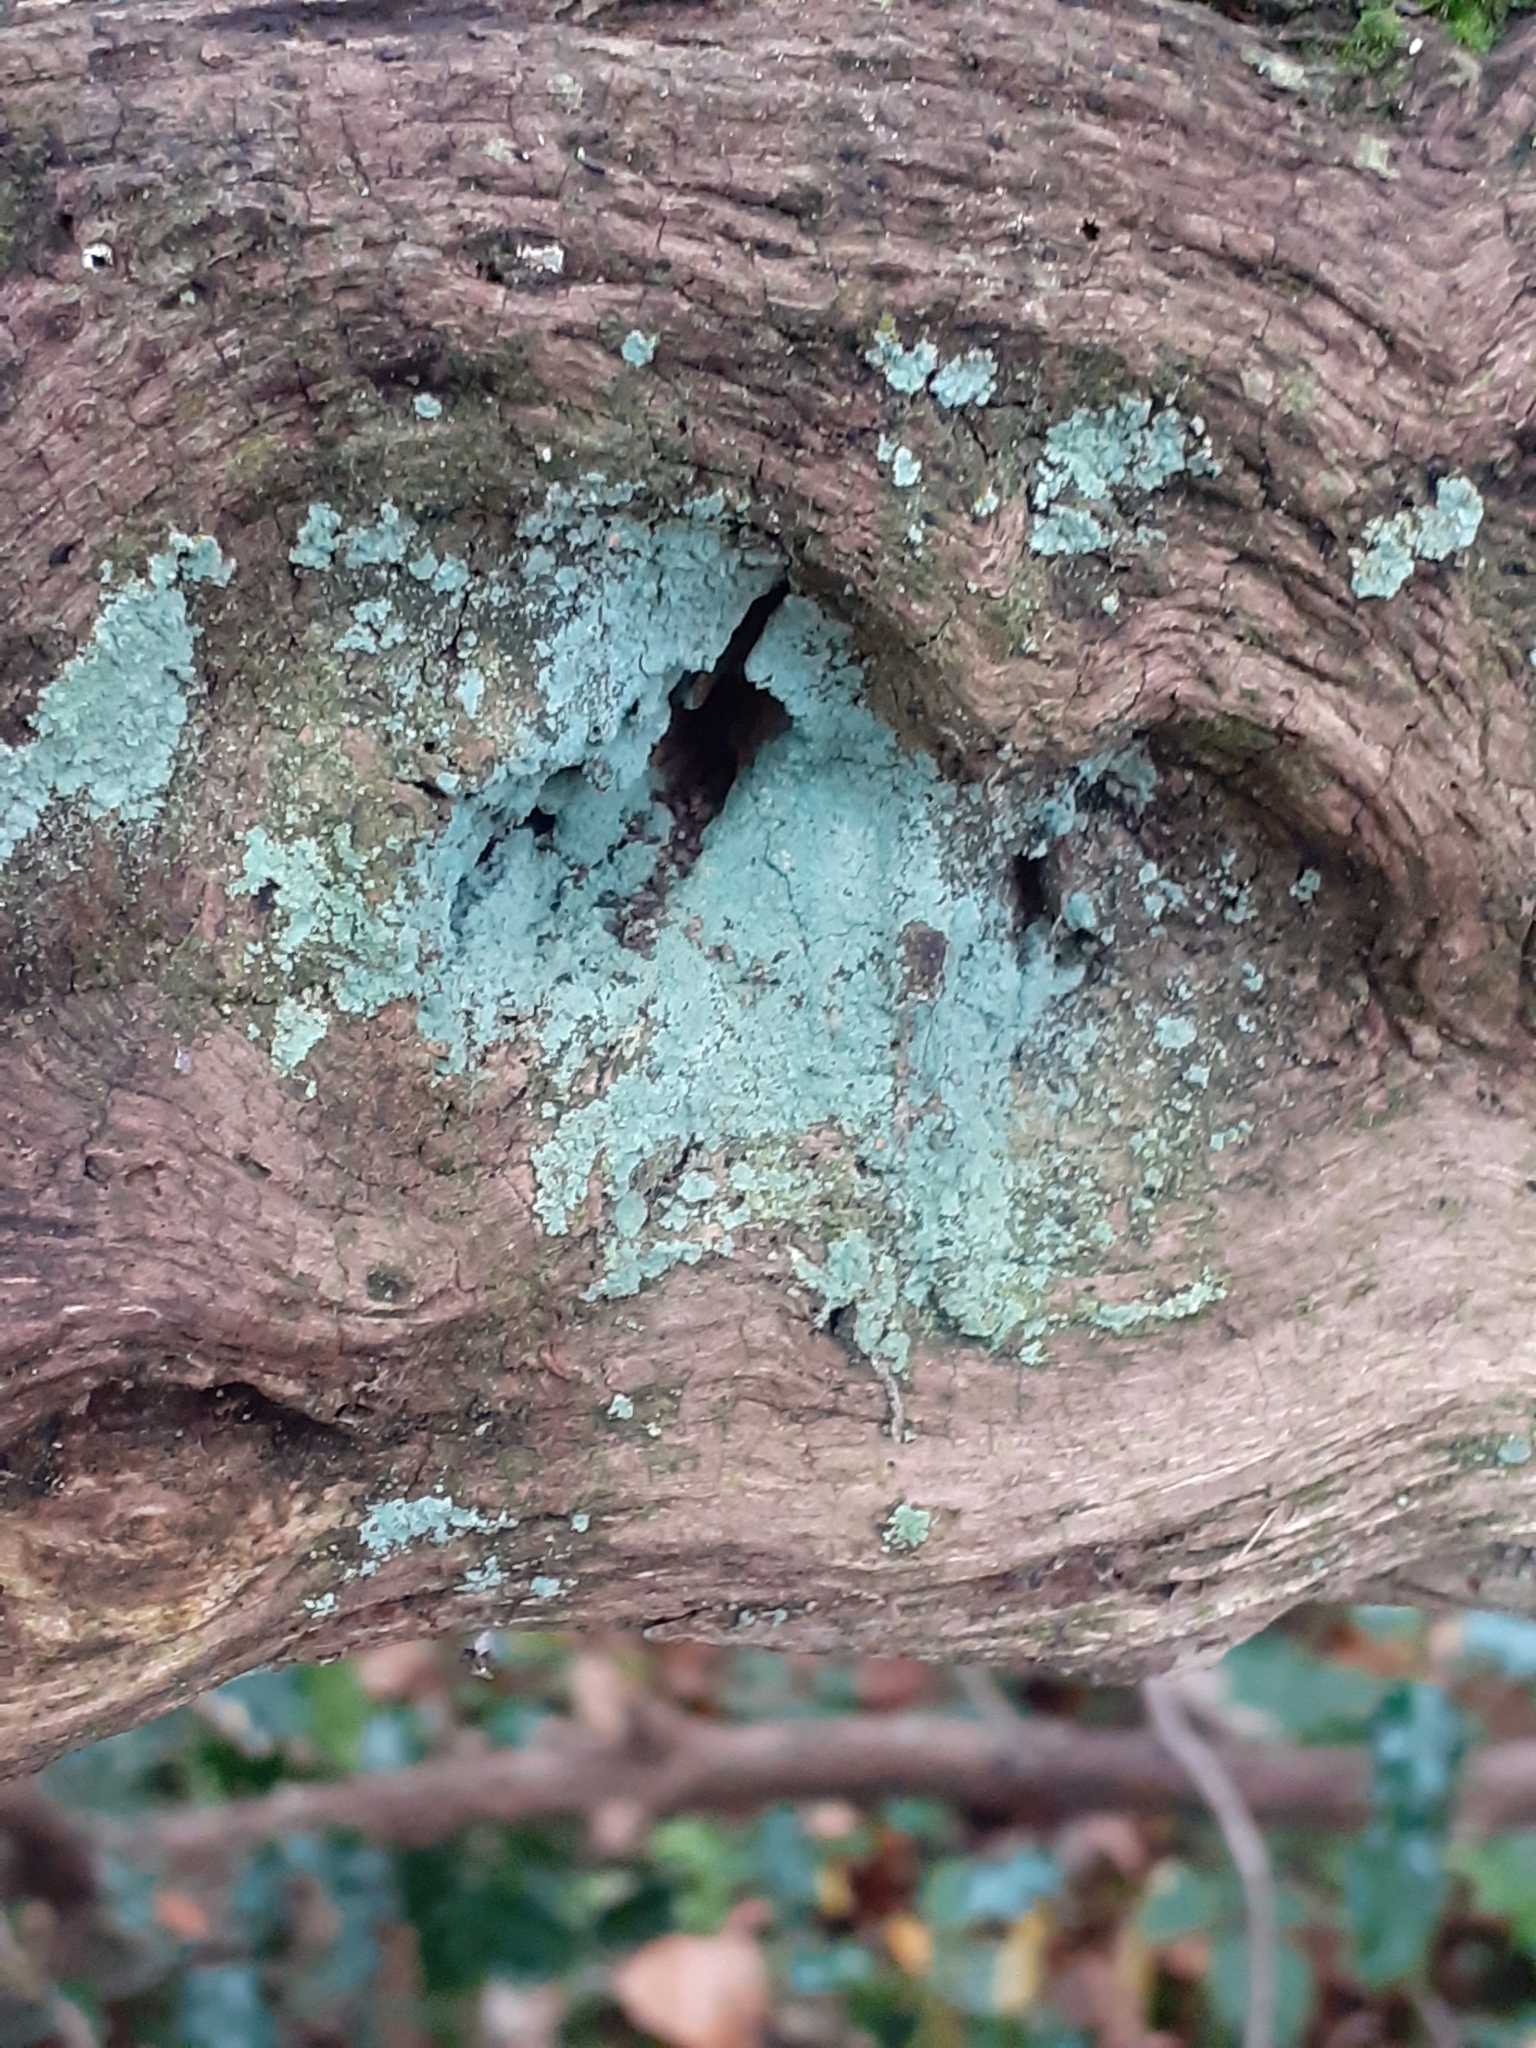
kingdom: Fungi
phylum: Ascomycota
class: Lecanoromycetes
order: Lecanorales
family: Stereocaulaceae
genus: Lepraria
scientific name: Lepraria
